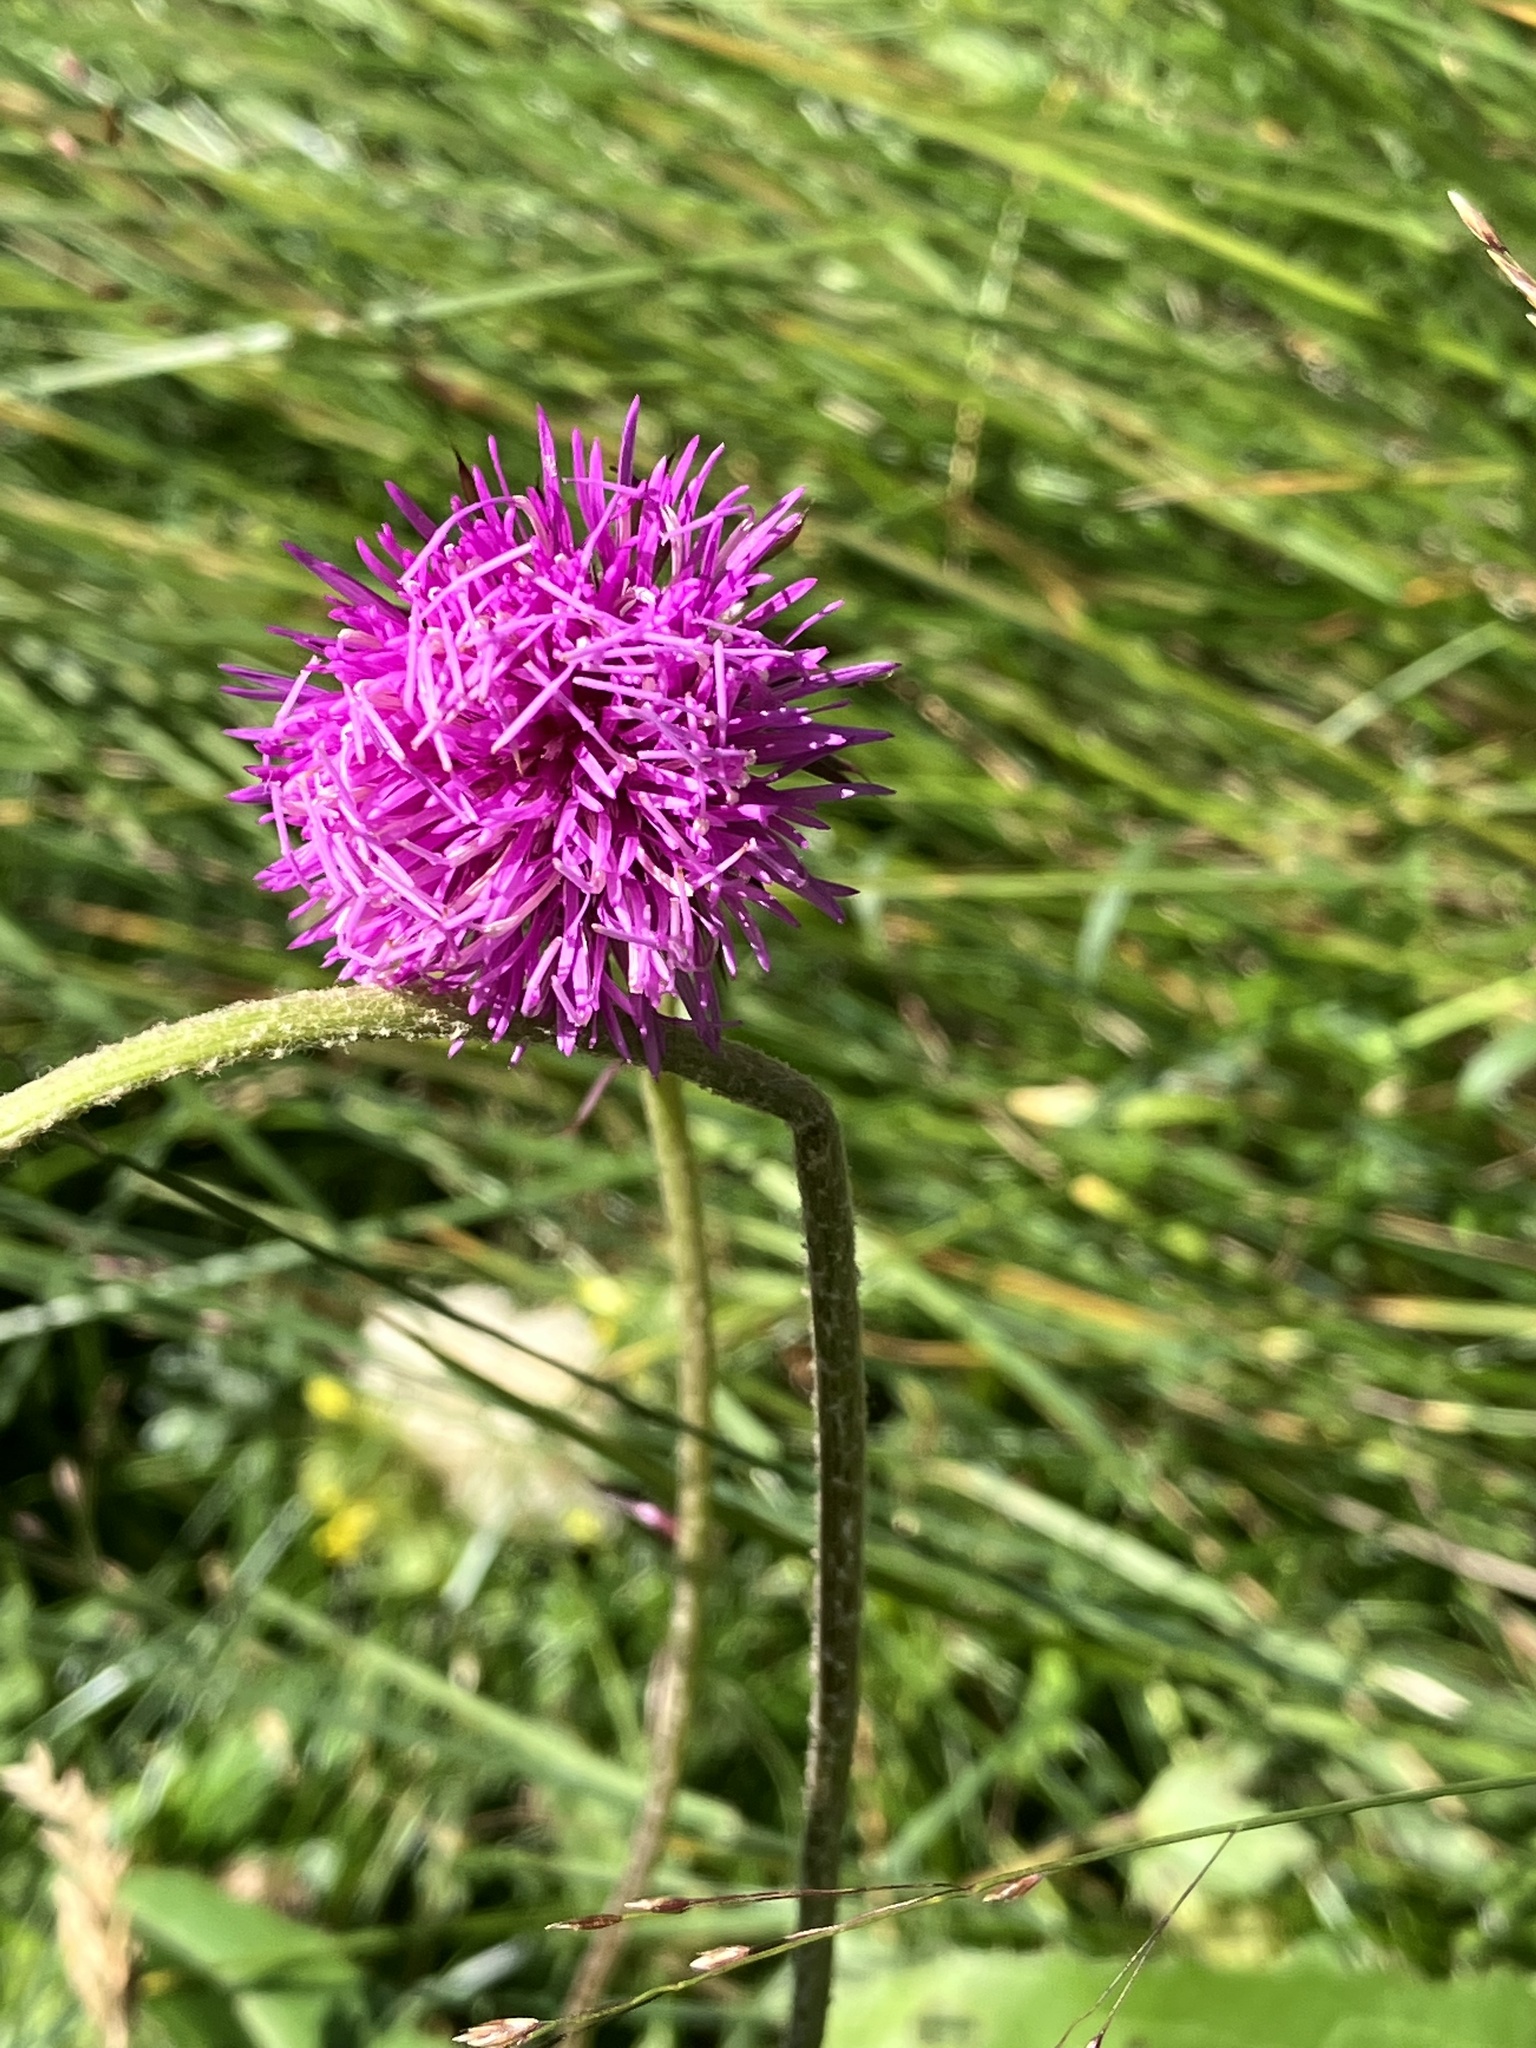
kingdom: Plantae
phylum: Tracheophyta
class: Magnoliopsida
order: Asterales
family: Asteraceae
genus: Carduus
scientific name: Carduus defloratus
